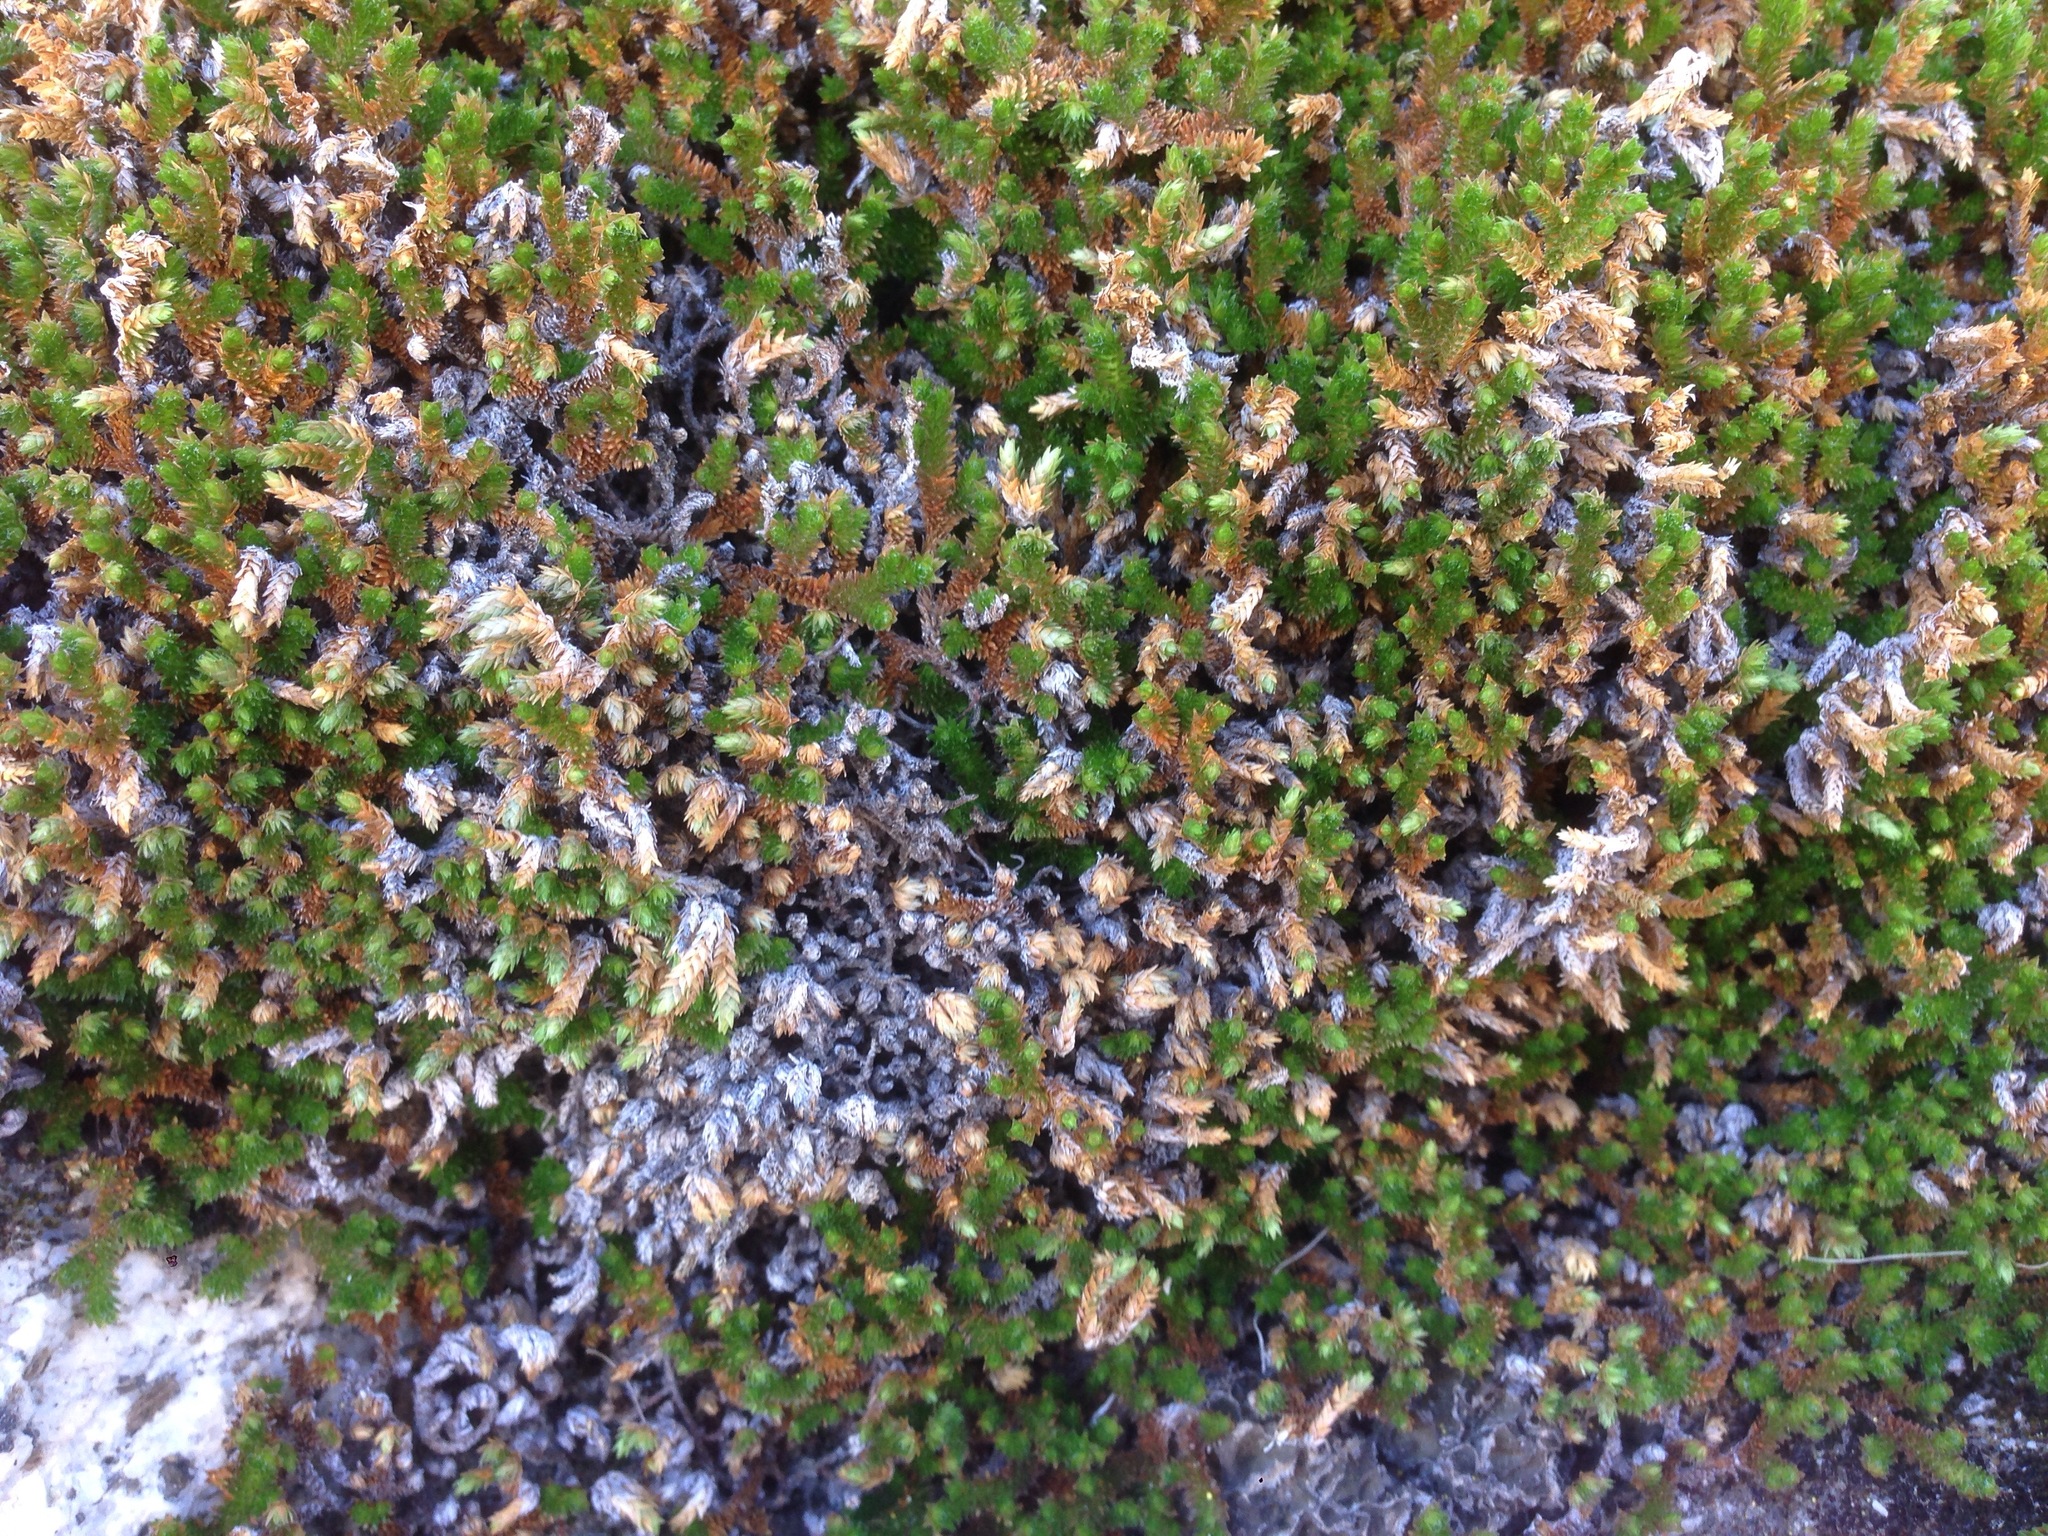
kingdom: Plantae
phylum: Tracheophyta
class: Lycopodiopsida
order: Selaginellales
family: Selaginellaceae
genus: Selaginella
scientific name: Selaginella eremophila
